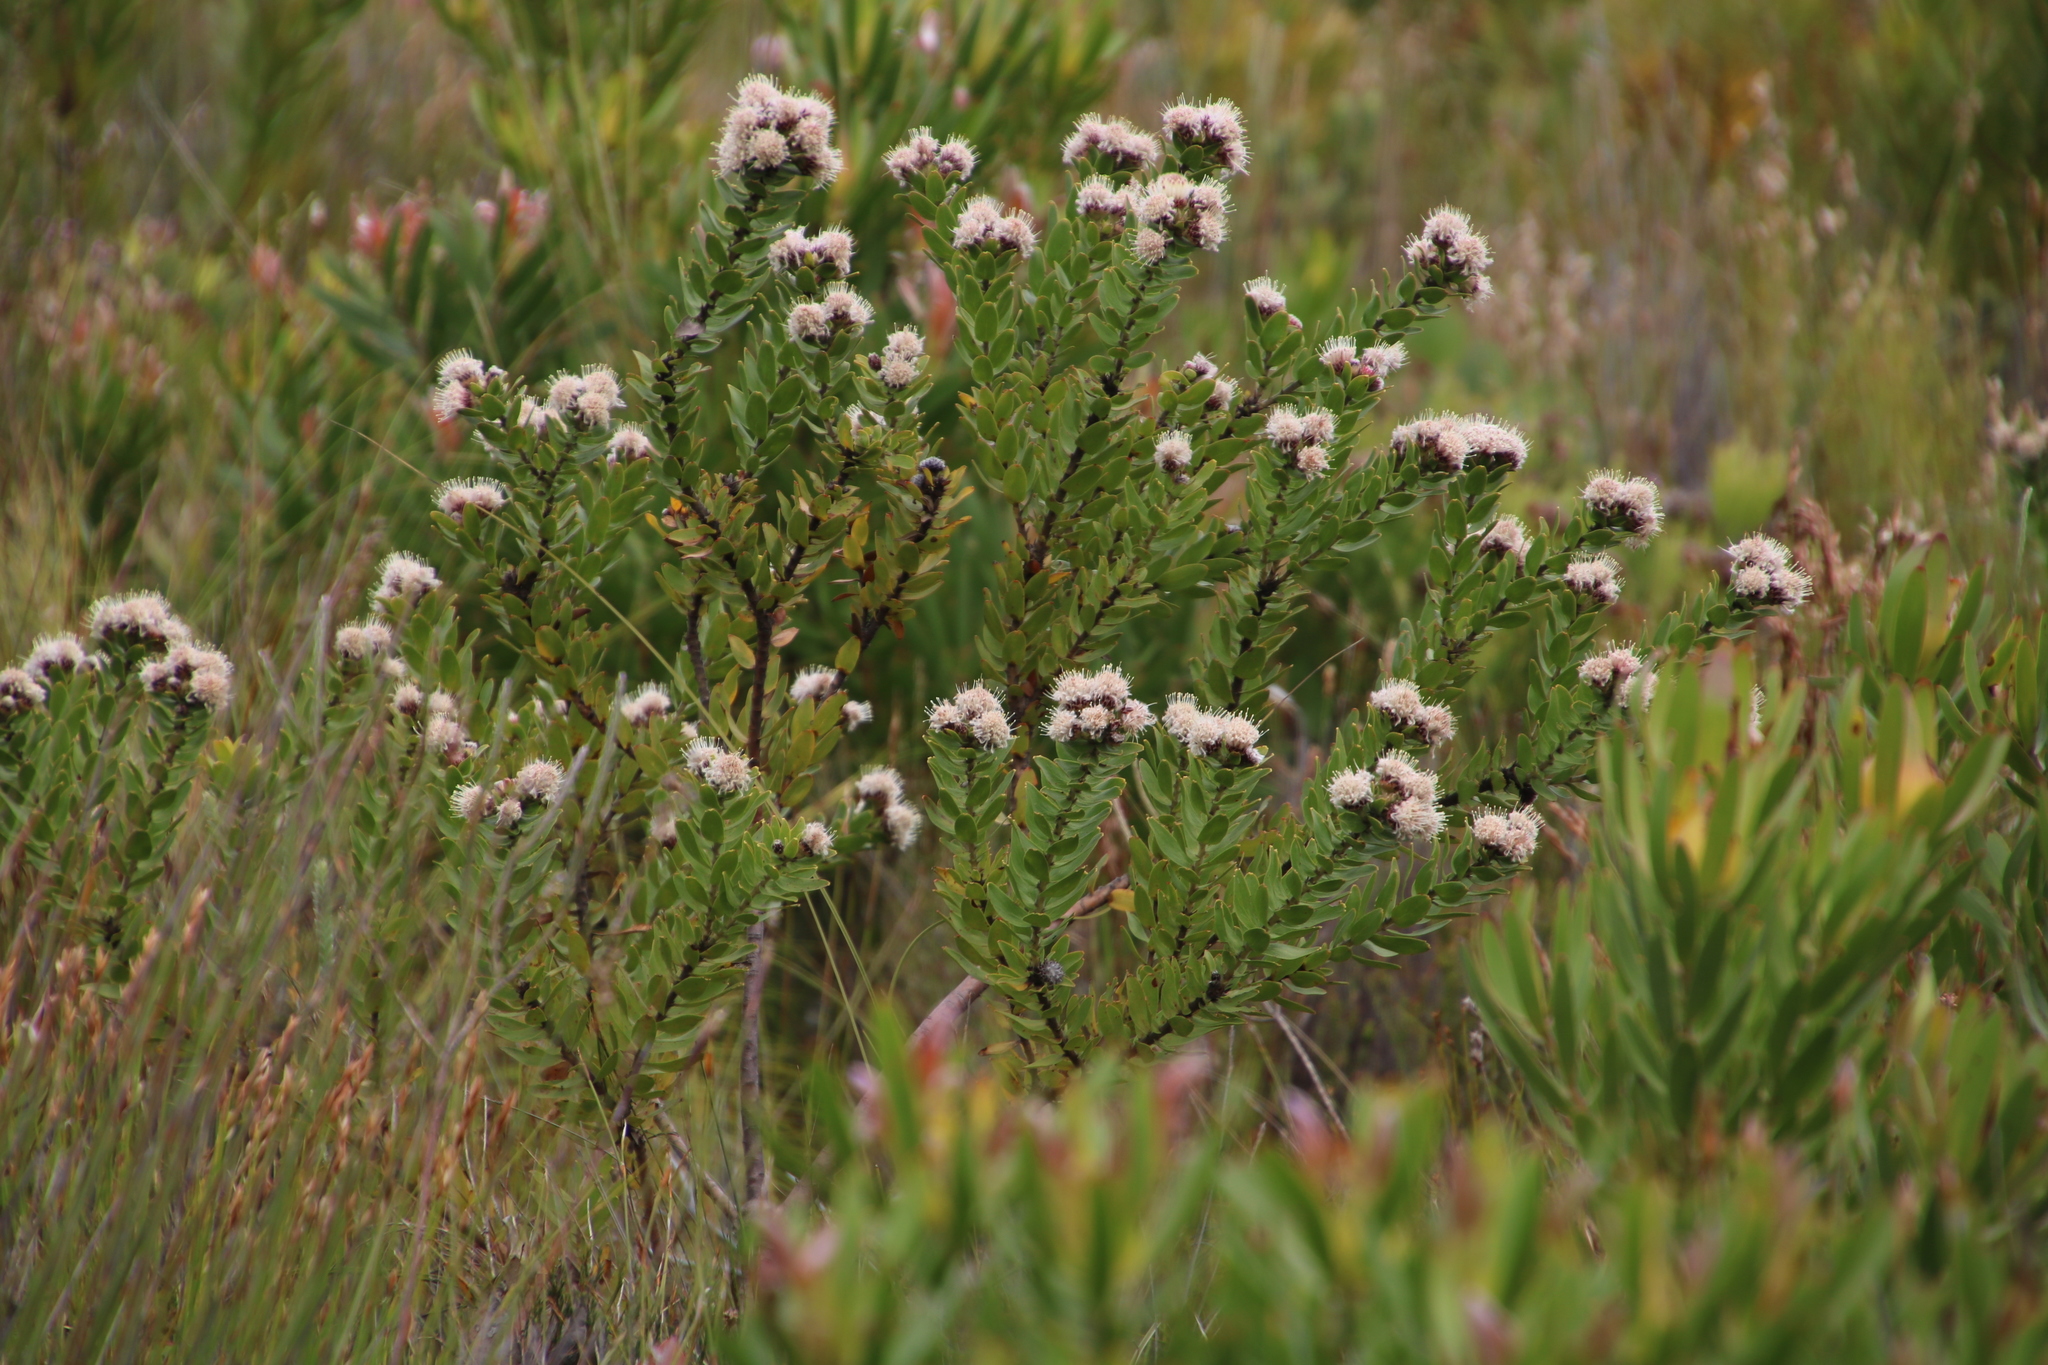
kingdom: Plantae
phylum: Tracheophyta
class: Magnoliopsida
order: Proteales
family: Proteaceae
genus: Leucospermum
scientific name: Leucospermum bolusii
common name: Gordon's bay pincushion
